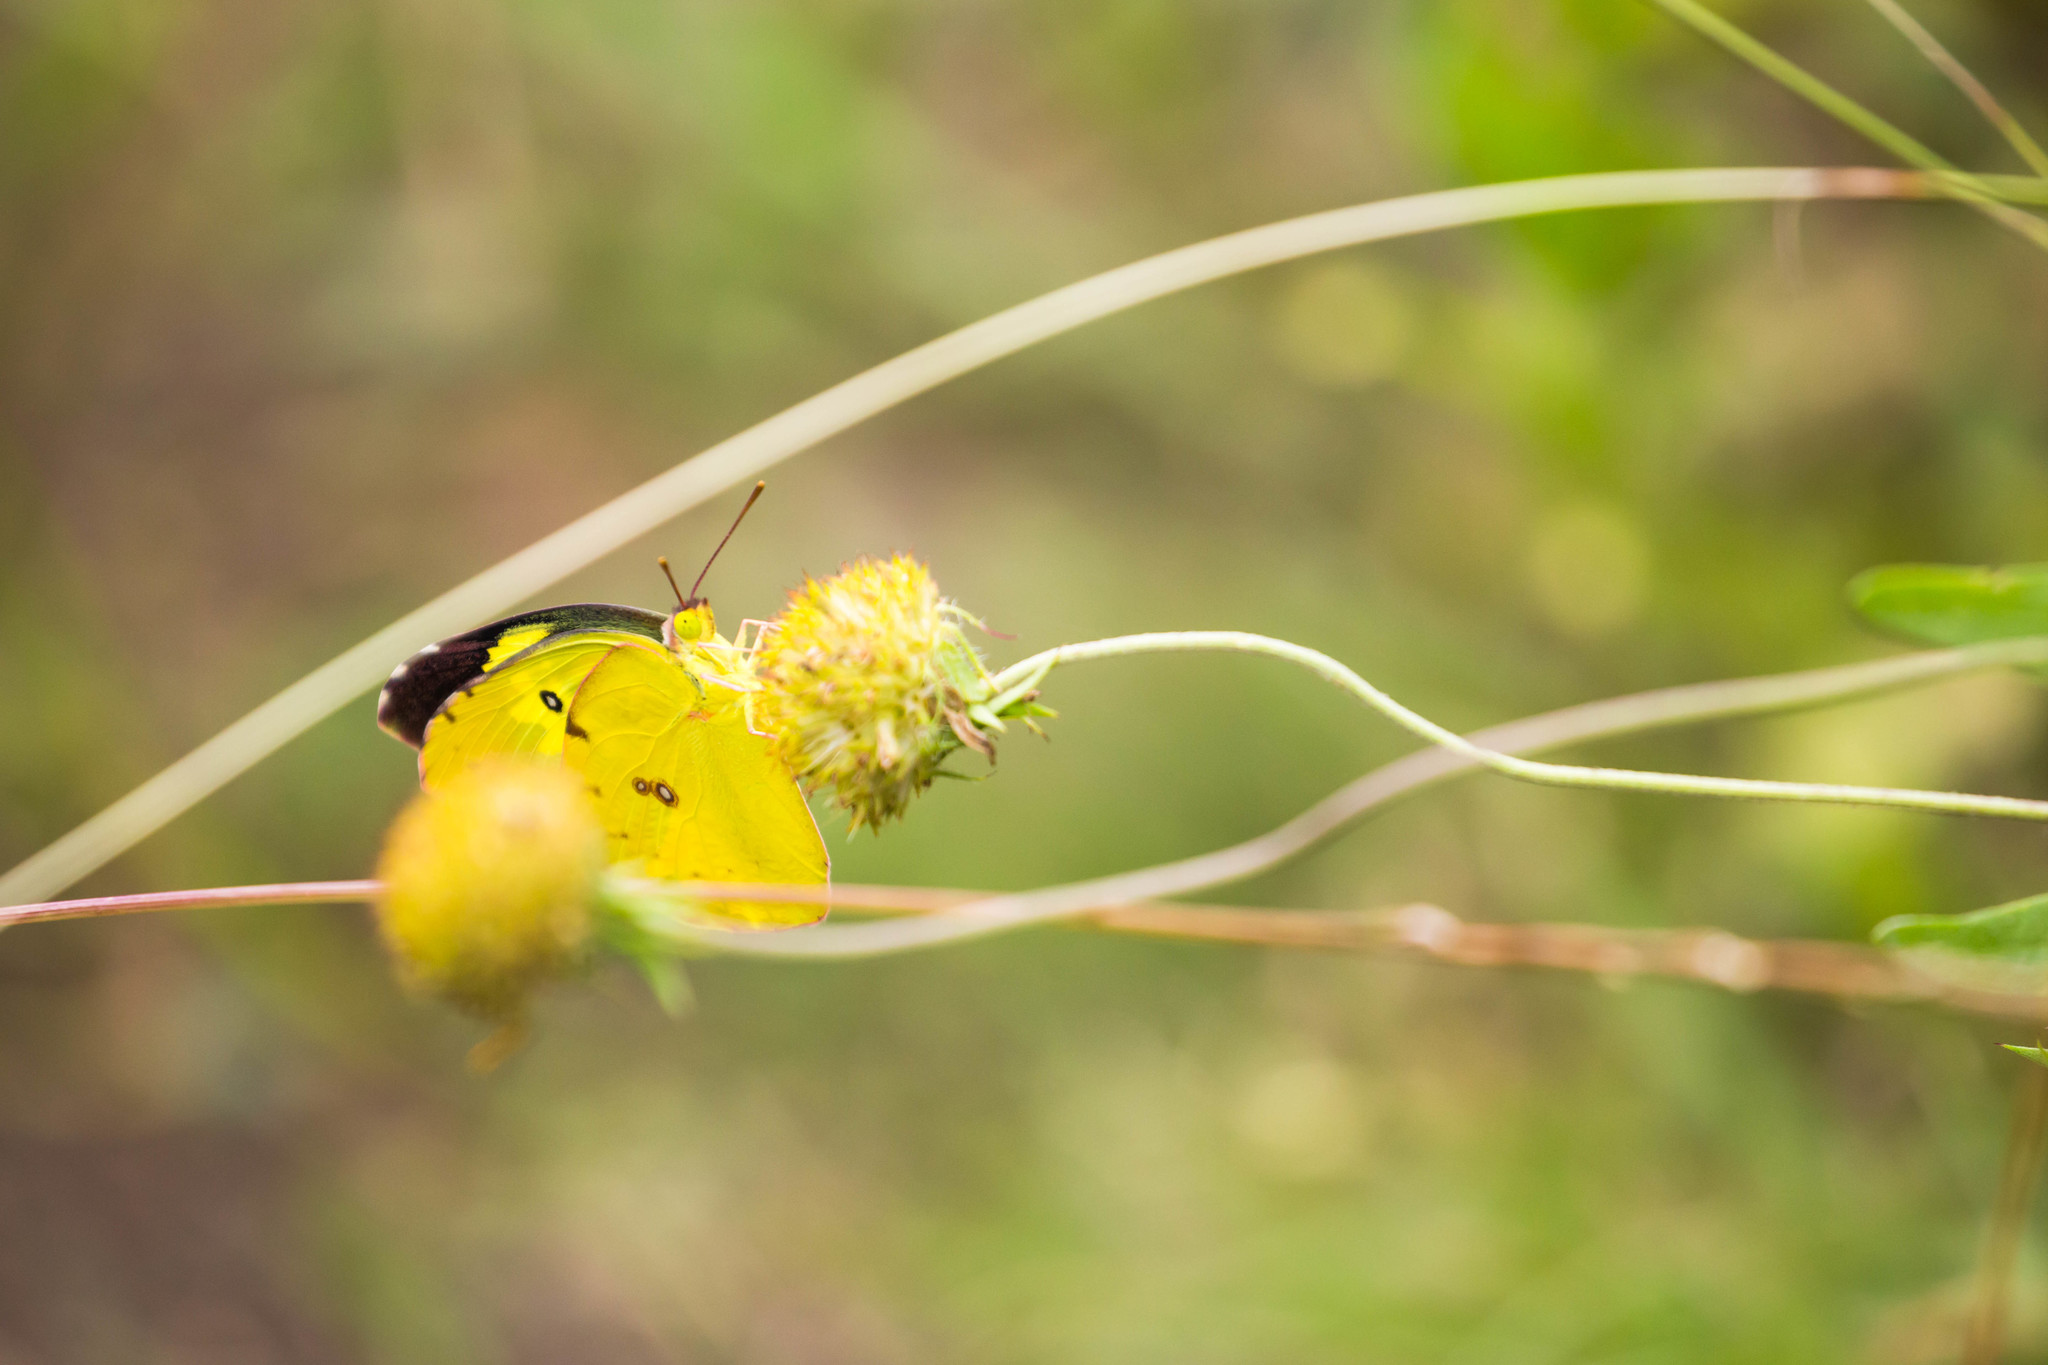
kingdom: Animalia
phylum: Arthropoda
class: Insecta
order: Lepidoptera
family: Pieridae
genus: Zerene
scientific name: Zerene cesonia
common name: Southern dogface
